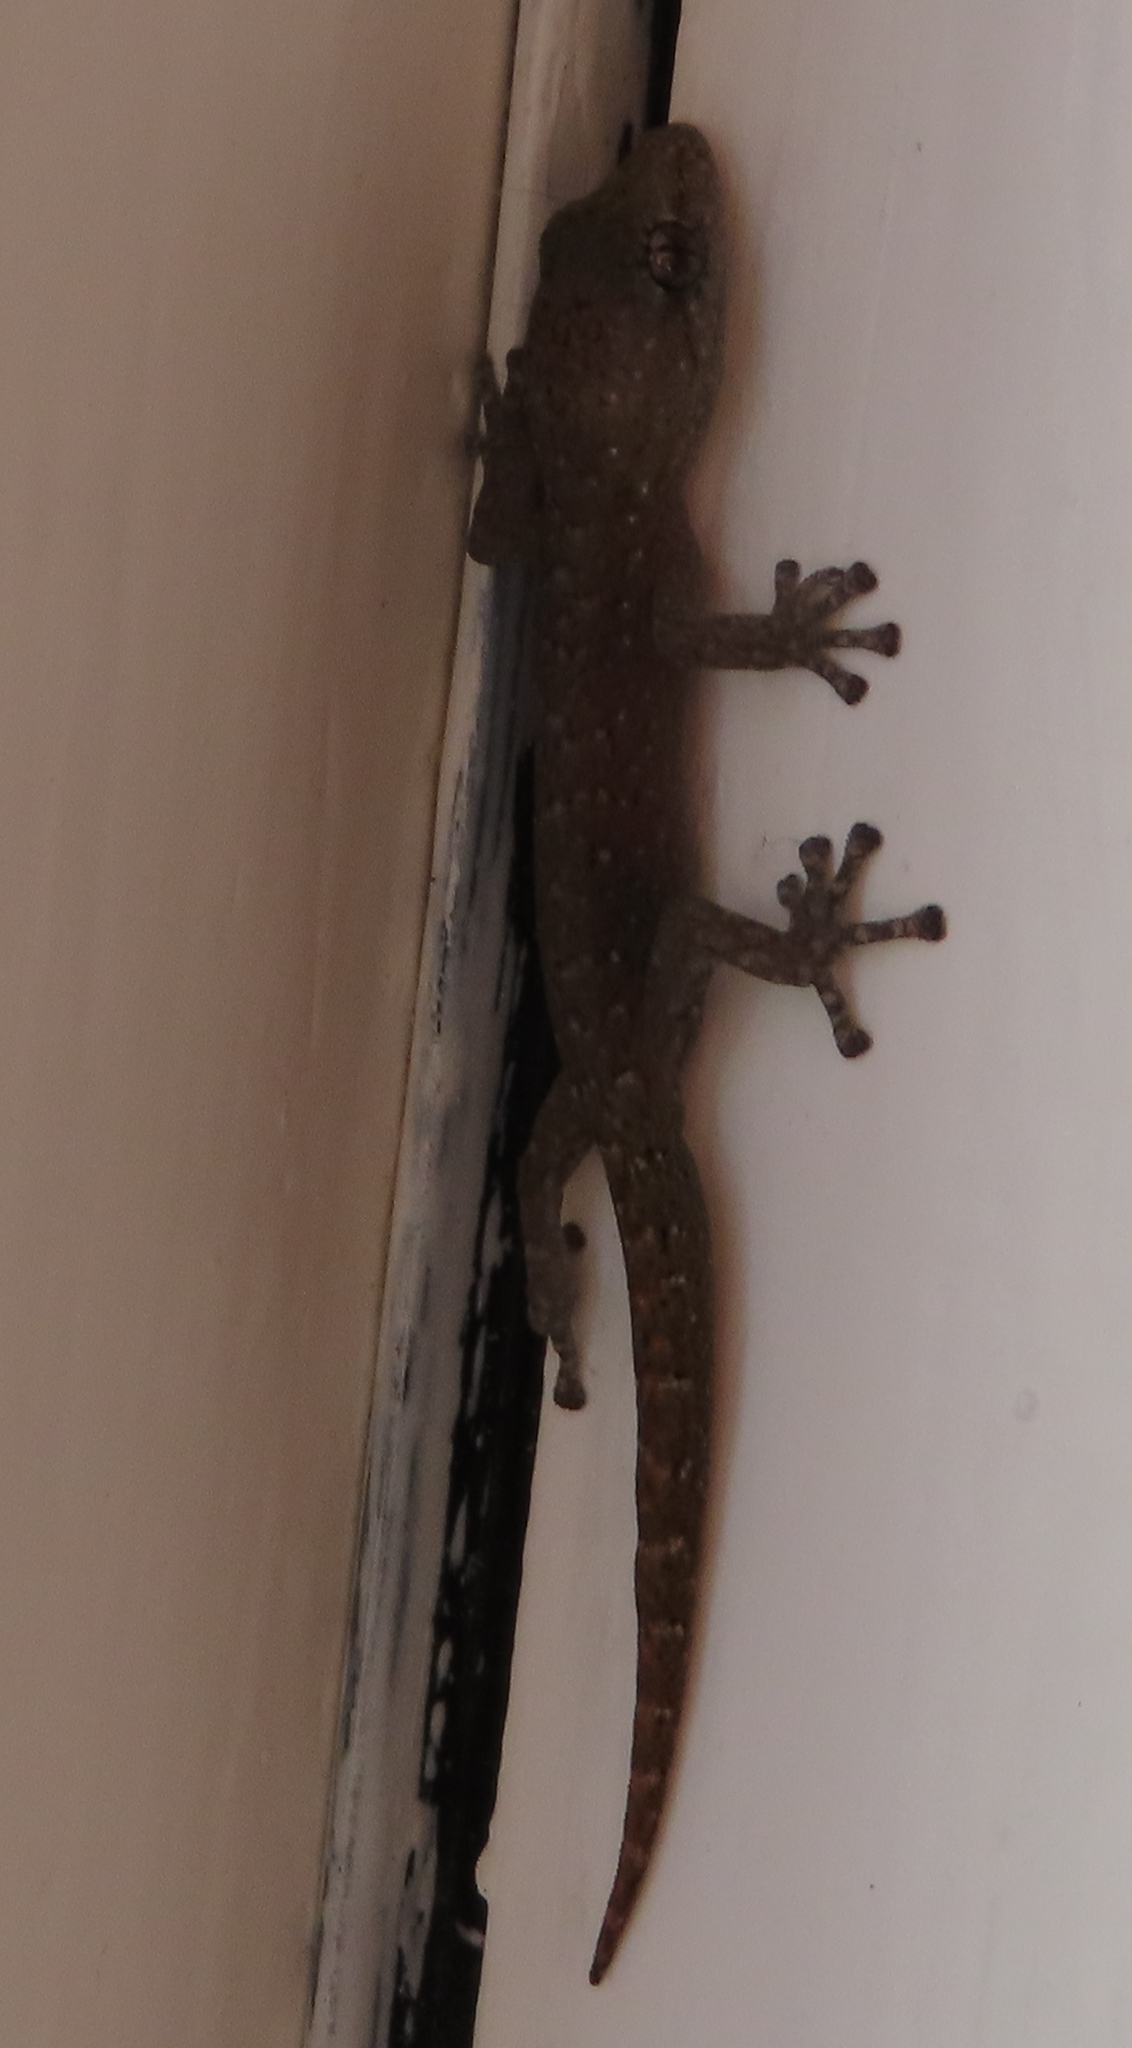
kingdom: Animalia
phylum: Chordata
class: Squamata
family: Gekkonidae
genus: Afrogecko
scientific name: Afrogecko porphyreus
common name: Marbled leaf-toed gecko
